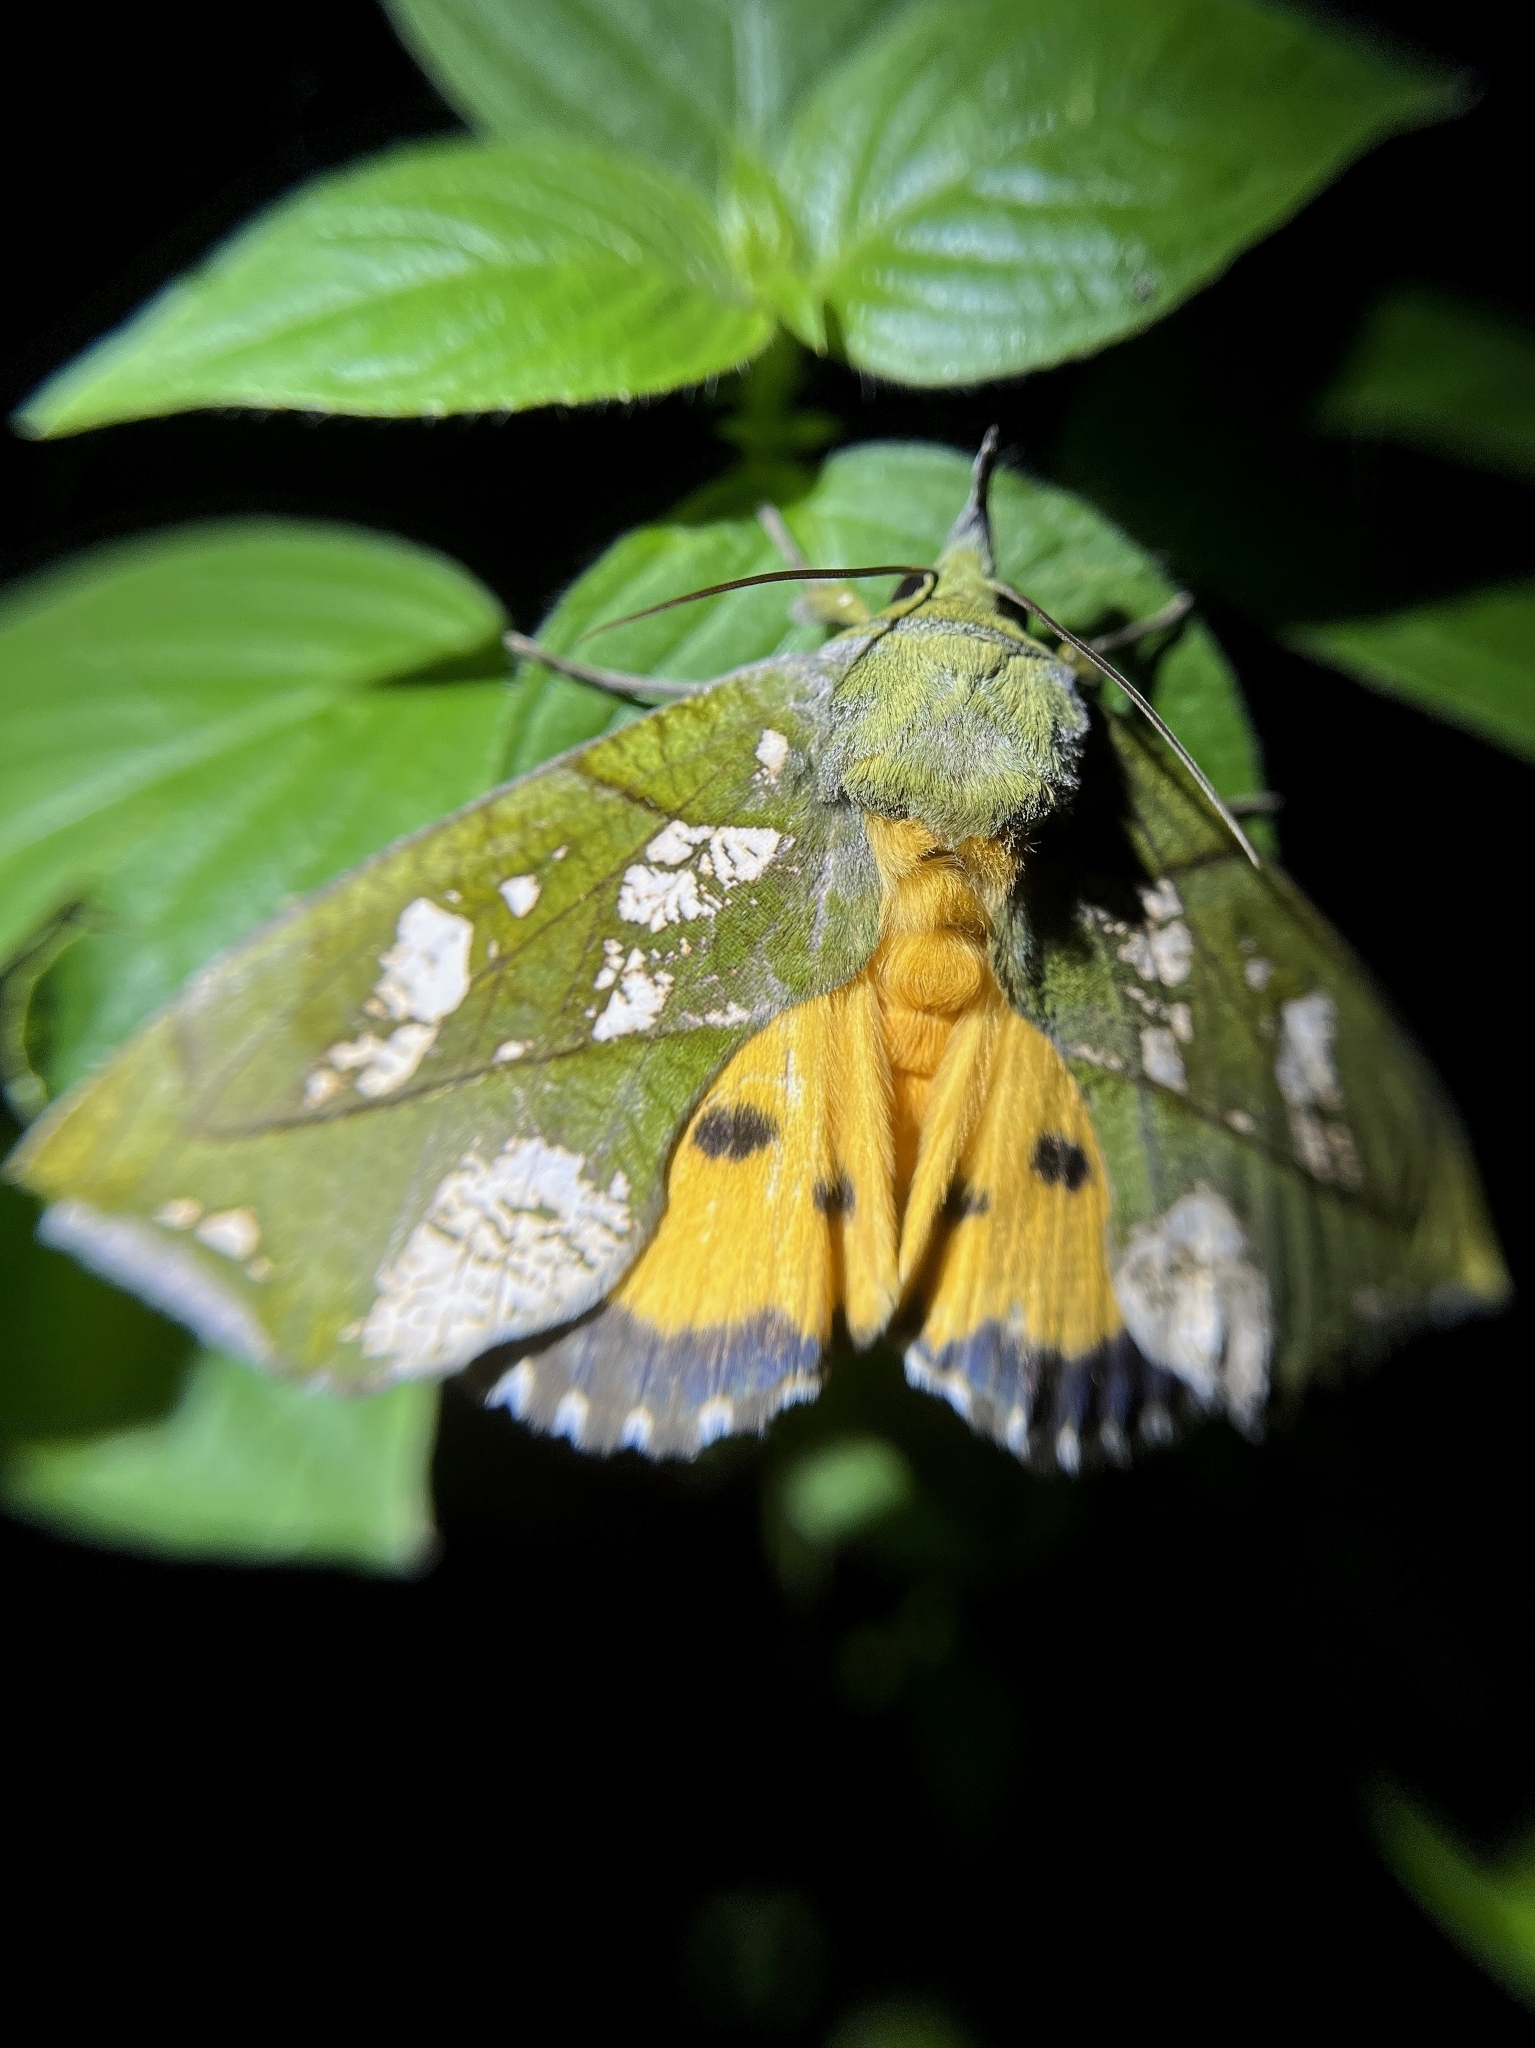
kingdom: Animalia
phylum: Arthropoda
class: Insecta
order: Lepidoptera
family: Erebidae
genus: Eudocima
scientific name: Eudocima hypermnestra
